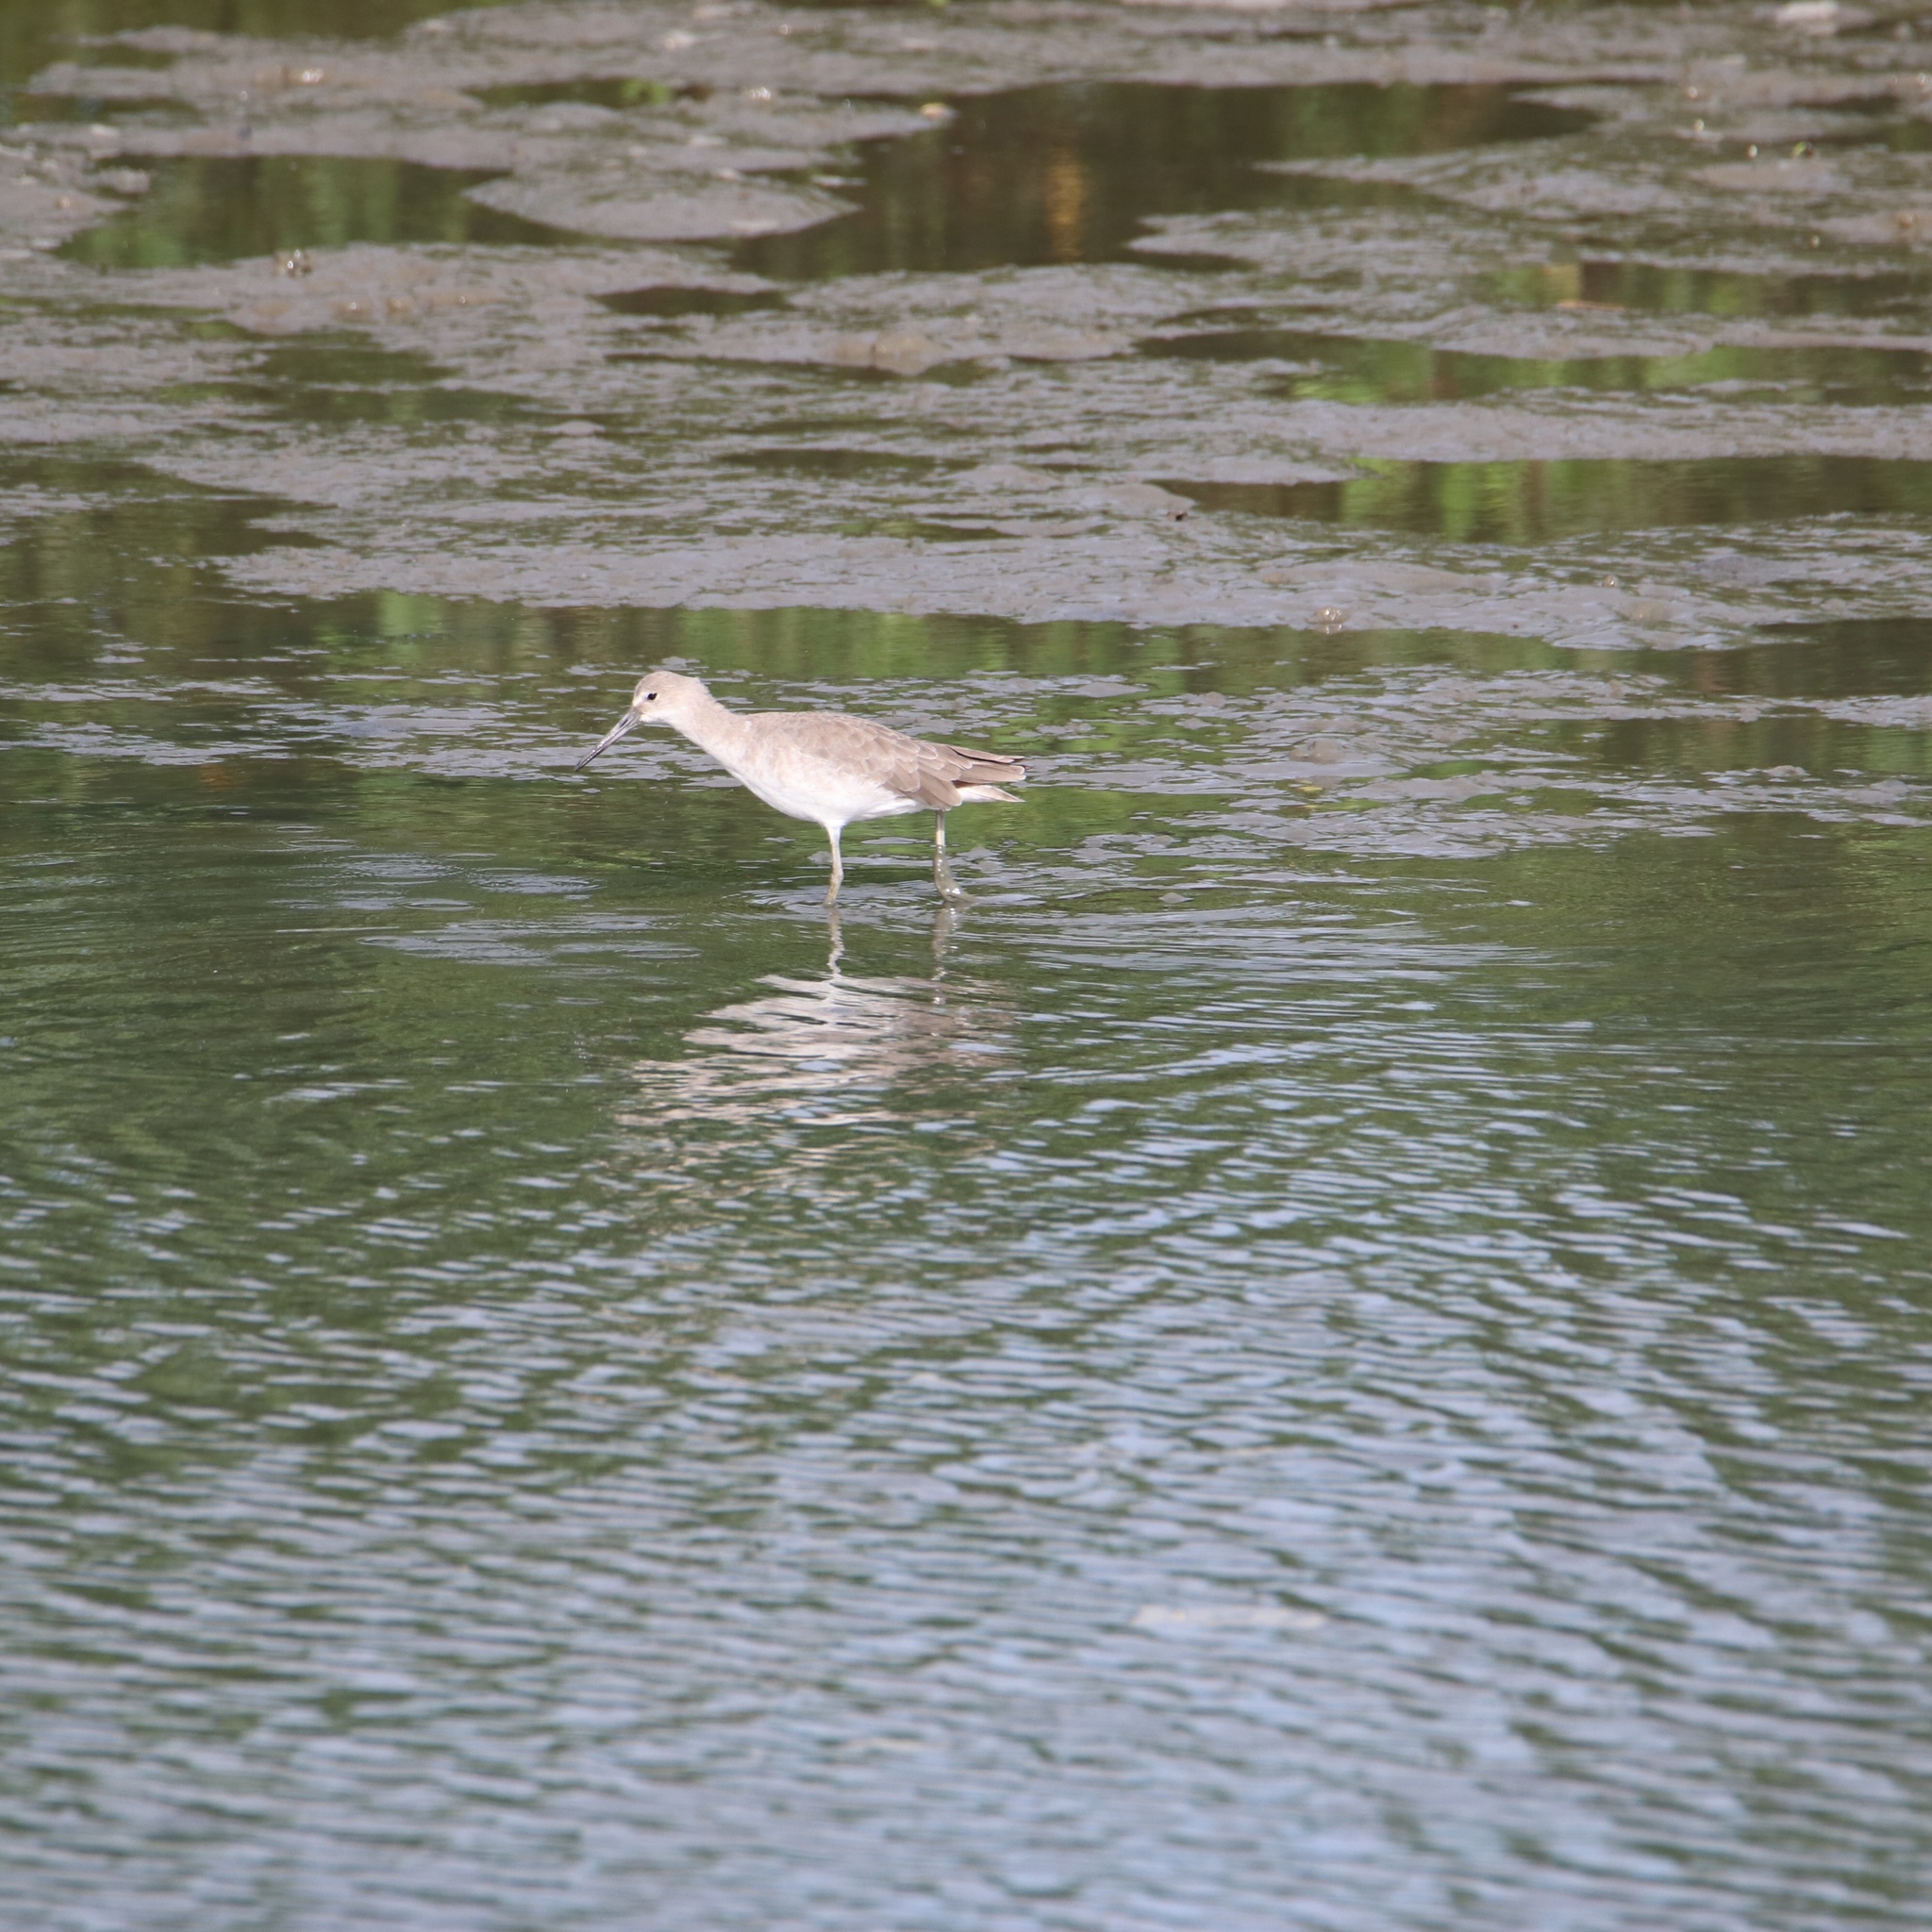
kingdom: Animalia
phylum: Chordata
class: Aves
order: Charadriiformes
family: Scolopacidae
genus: Tringa
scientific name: Tringa semipalmata
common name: Willet
